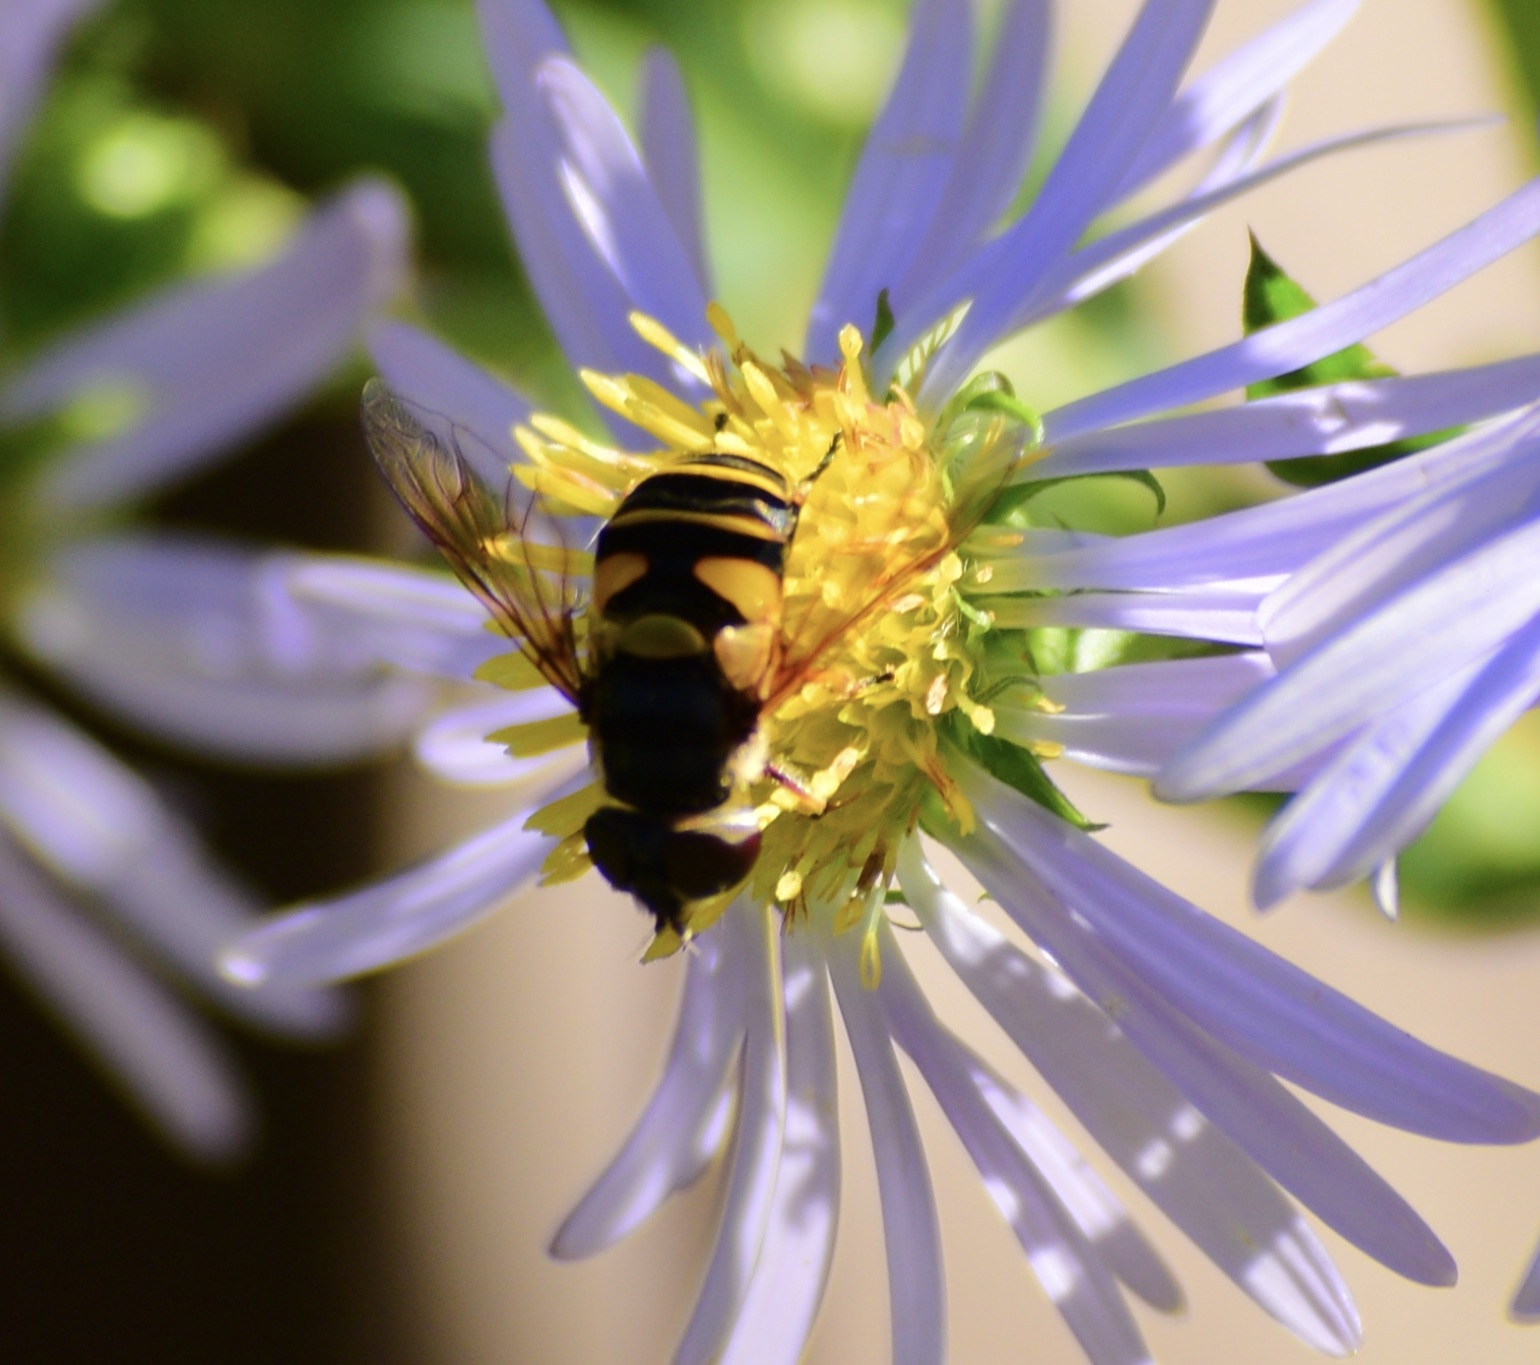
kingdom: Animalia
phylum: Arthropoda
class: Insecta
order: Diptera
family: Syrphidae
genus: Eristalis
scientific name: Eristalis transversa
